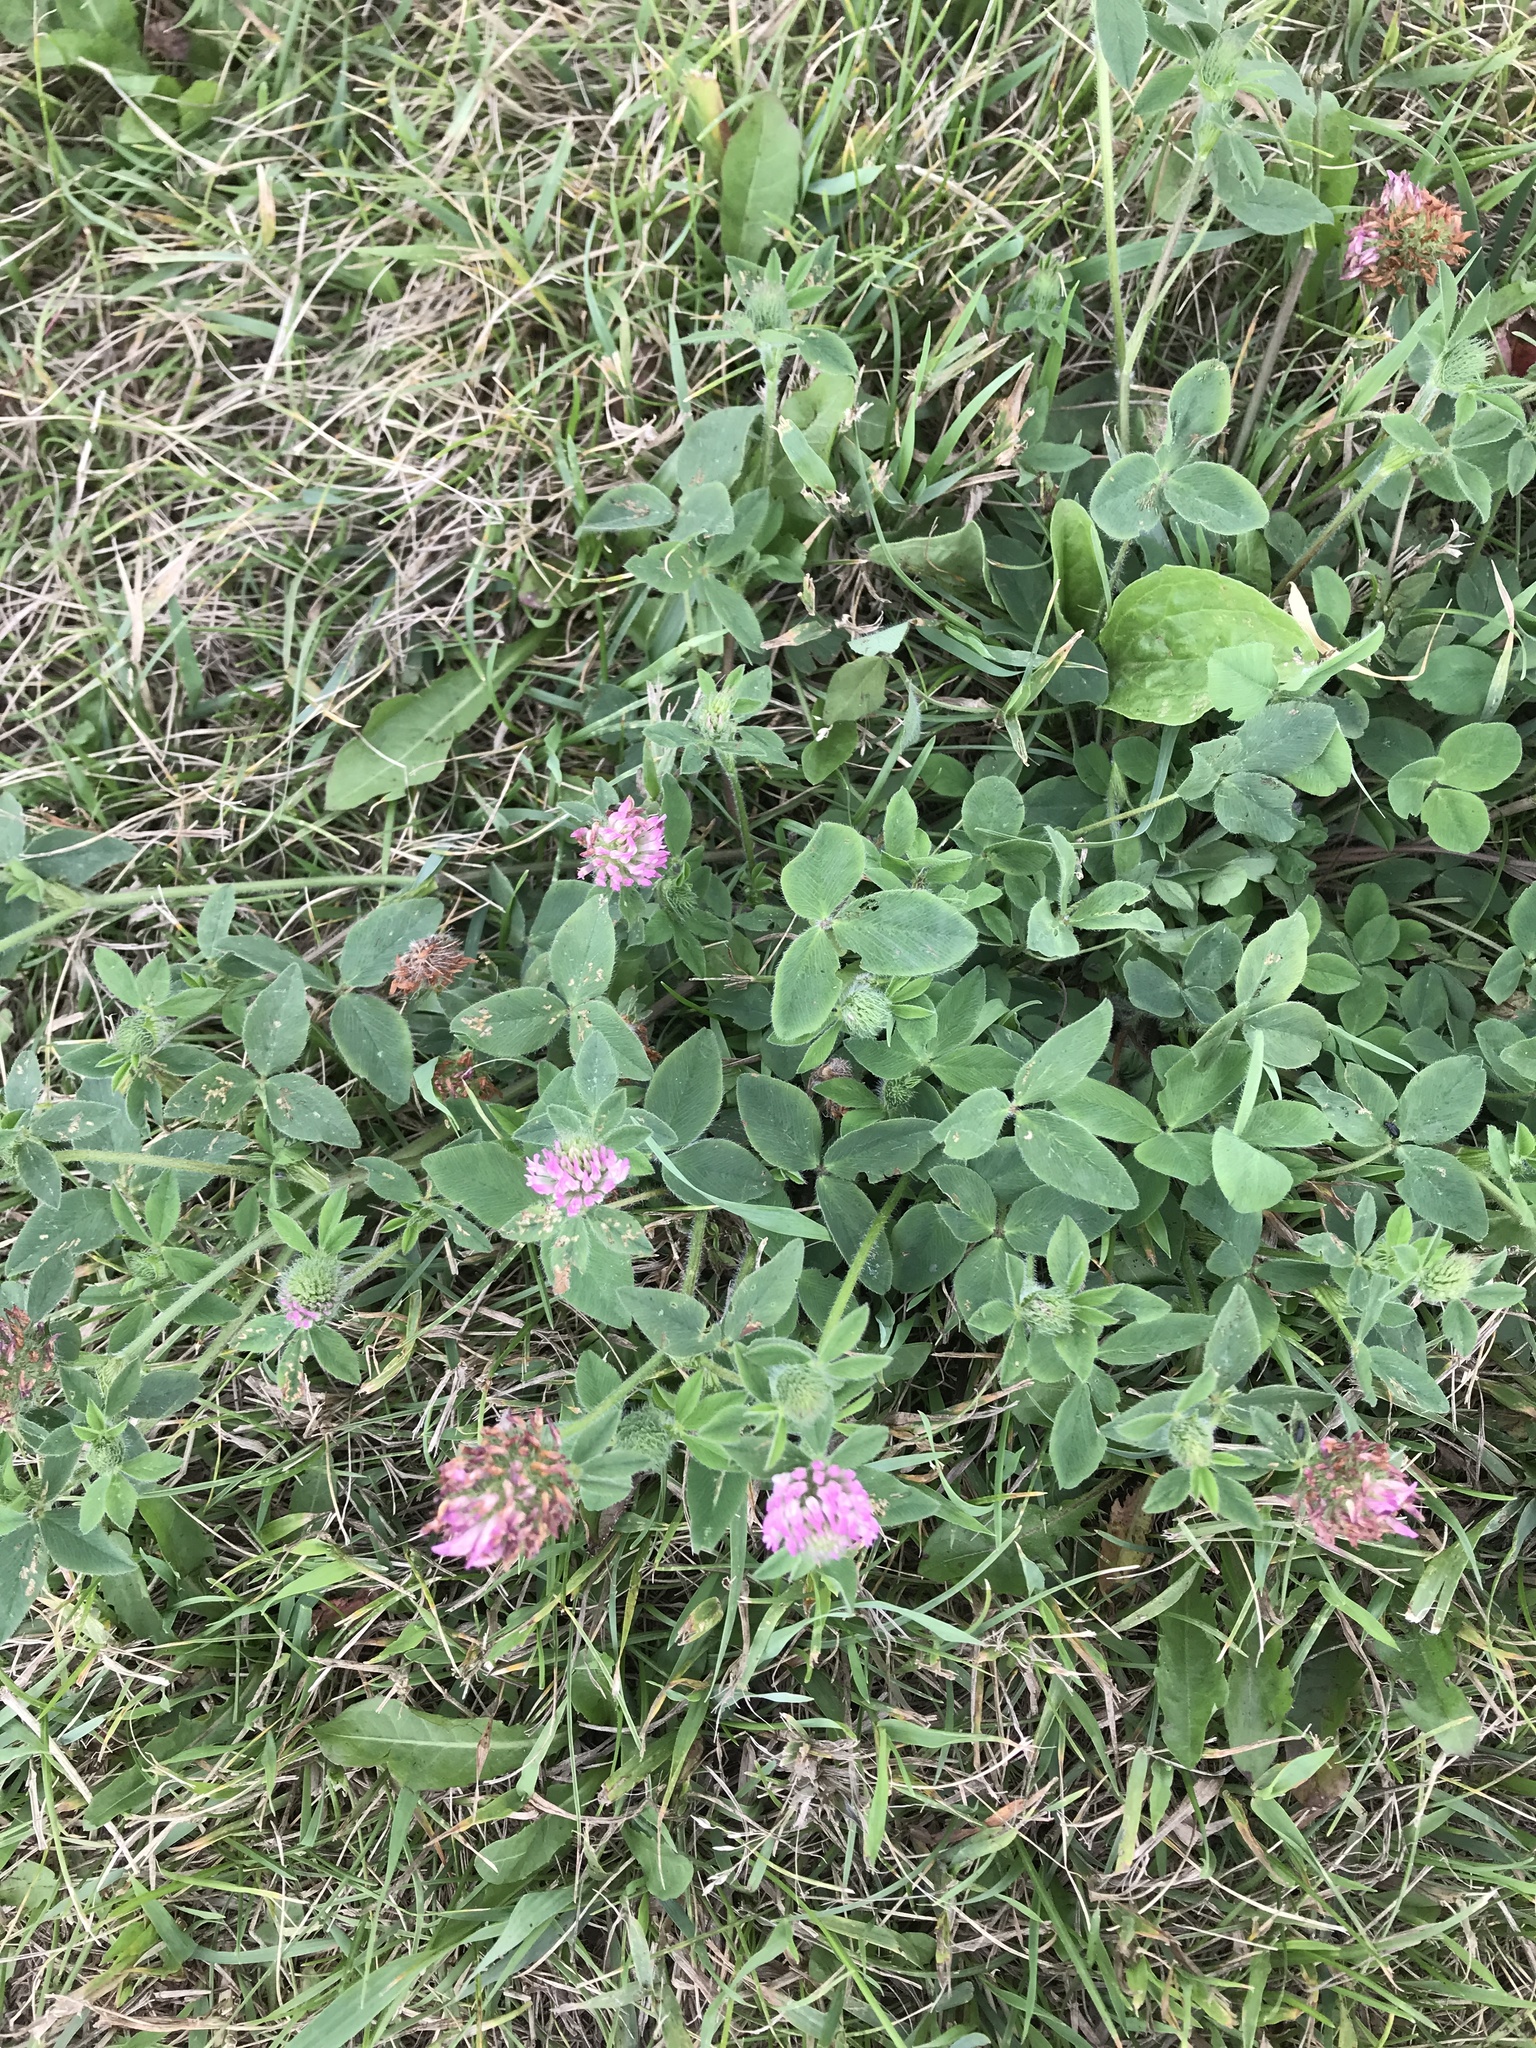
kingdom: Plantae
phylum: Tracheophyta
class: Magnoliopsida
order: Fabales
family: Fabaceae
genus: Trifolium
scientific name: Trifolium pratense
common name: Red clover
